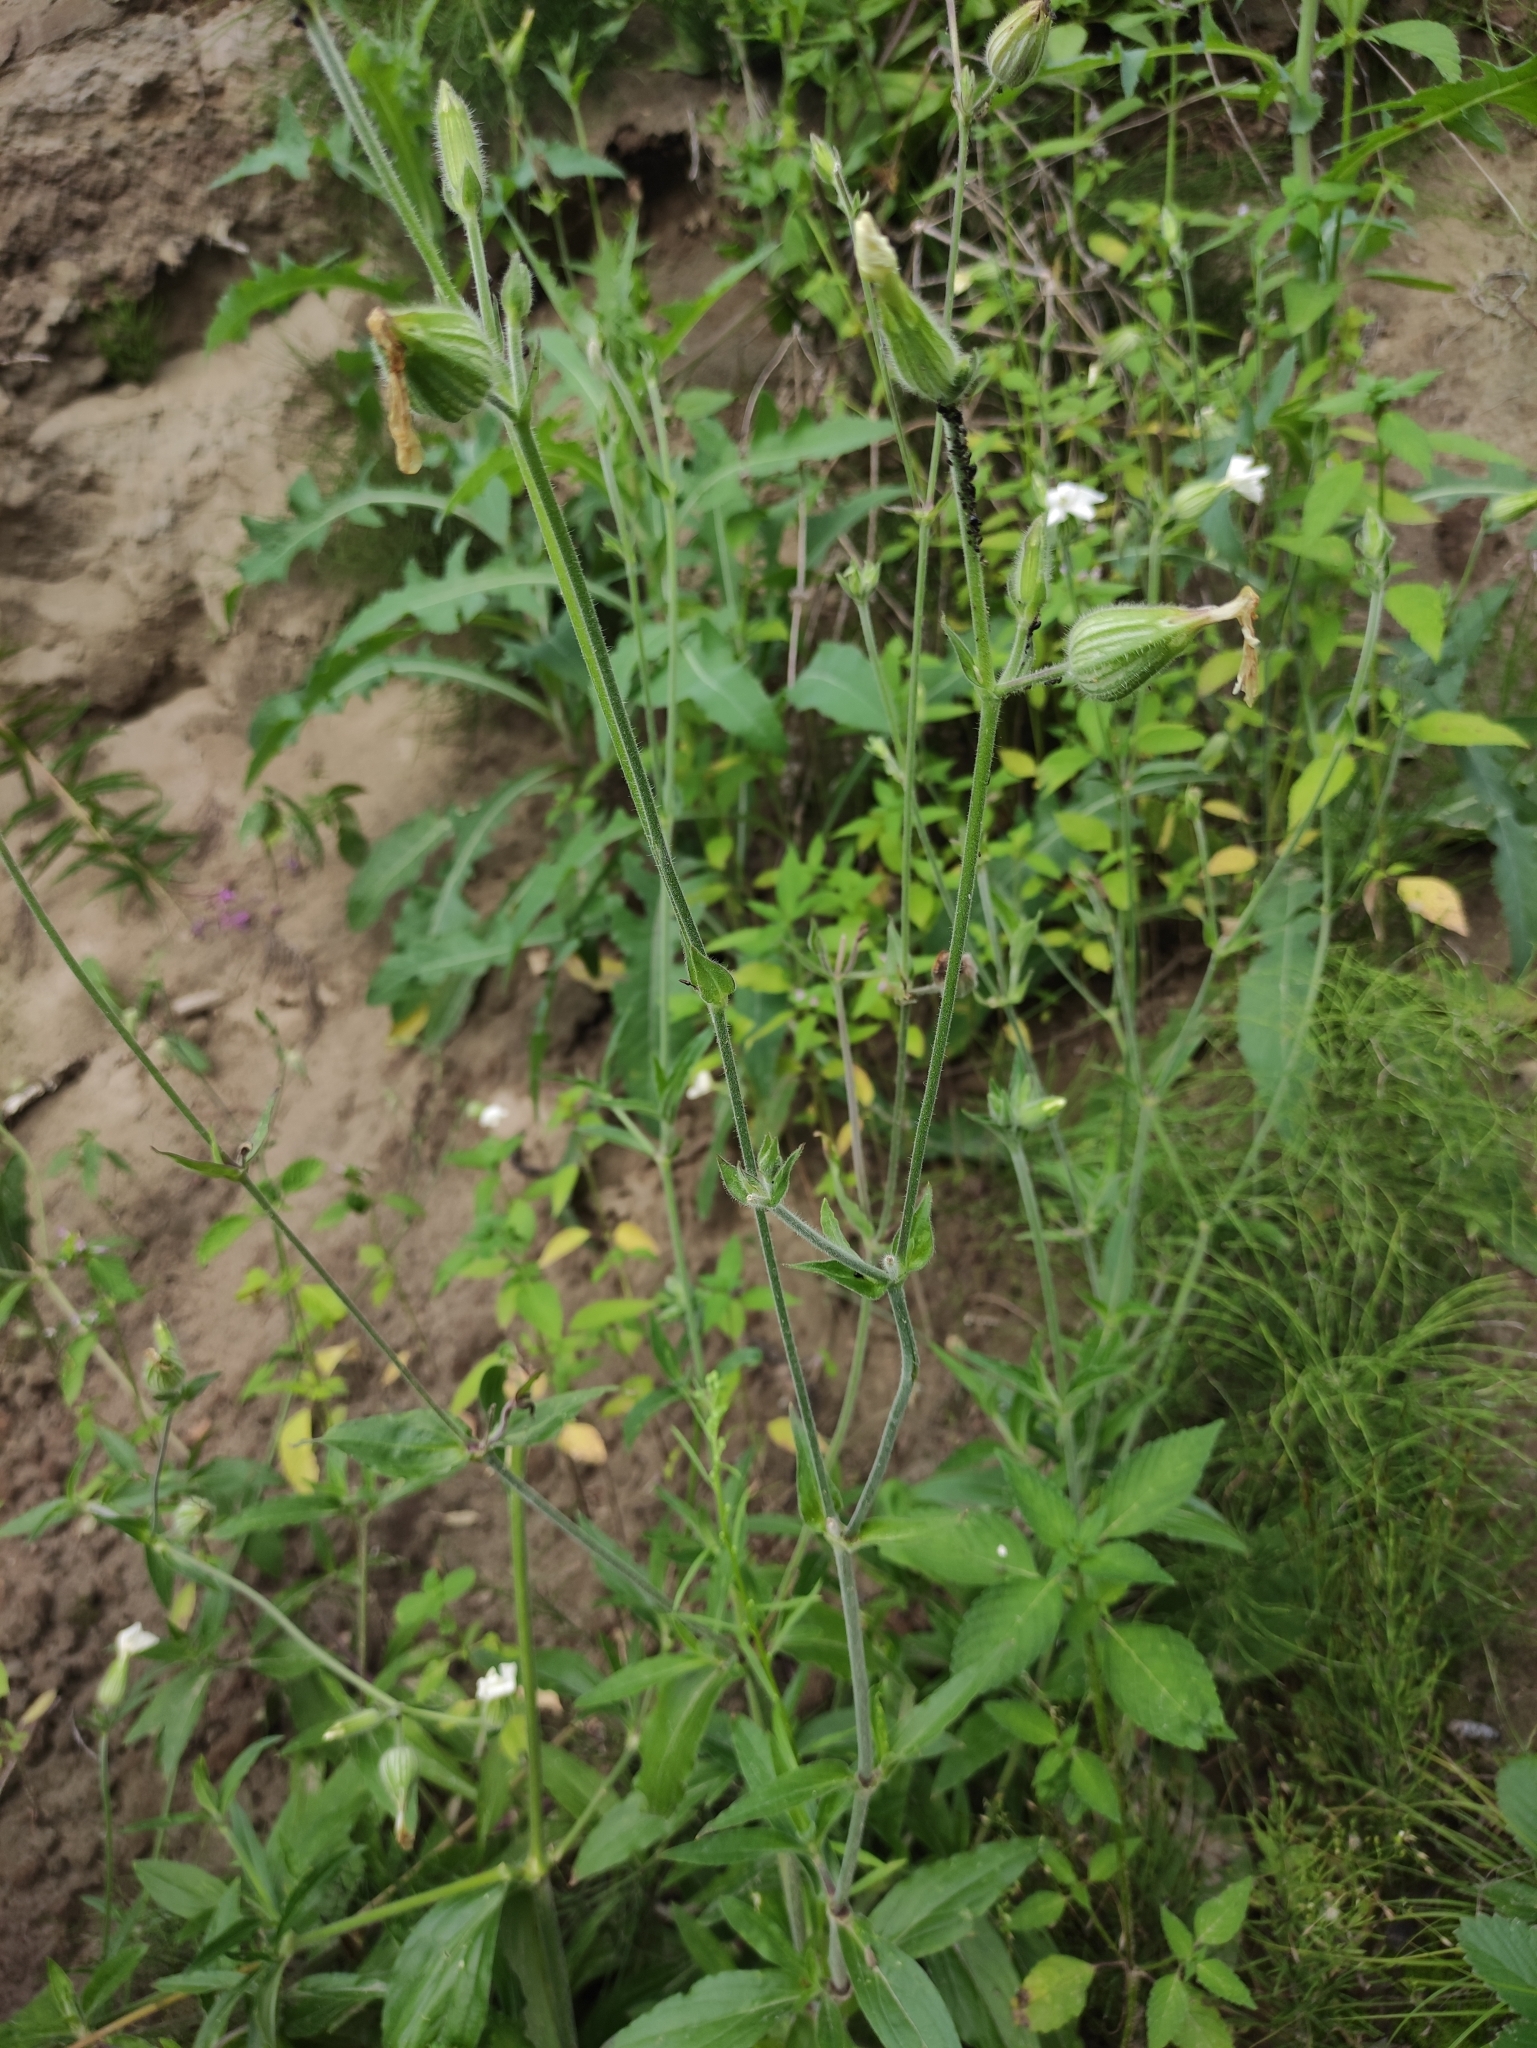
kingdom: Plantae
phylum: Tracheophyta
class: Magnoliopsida
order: Caryophyllales
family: Caryophyllaceae
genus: Silene
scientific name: Silene latifolia
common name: White campion
